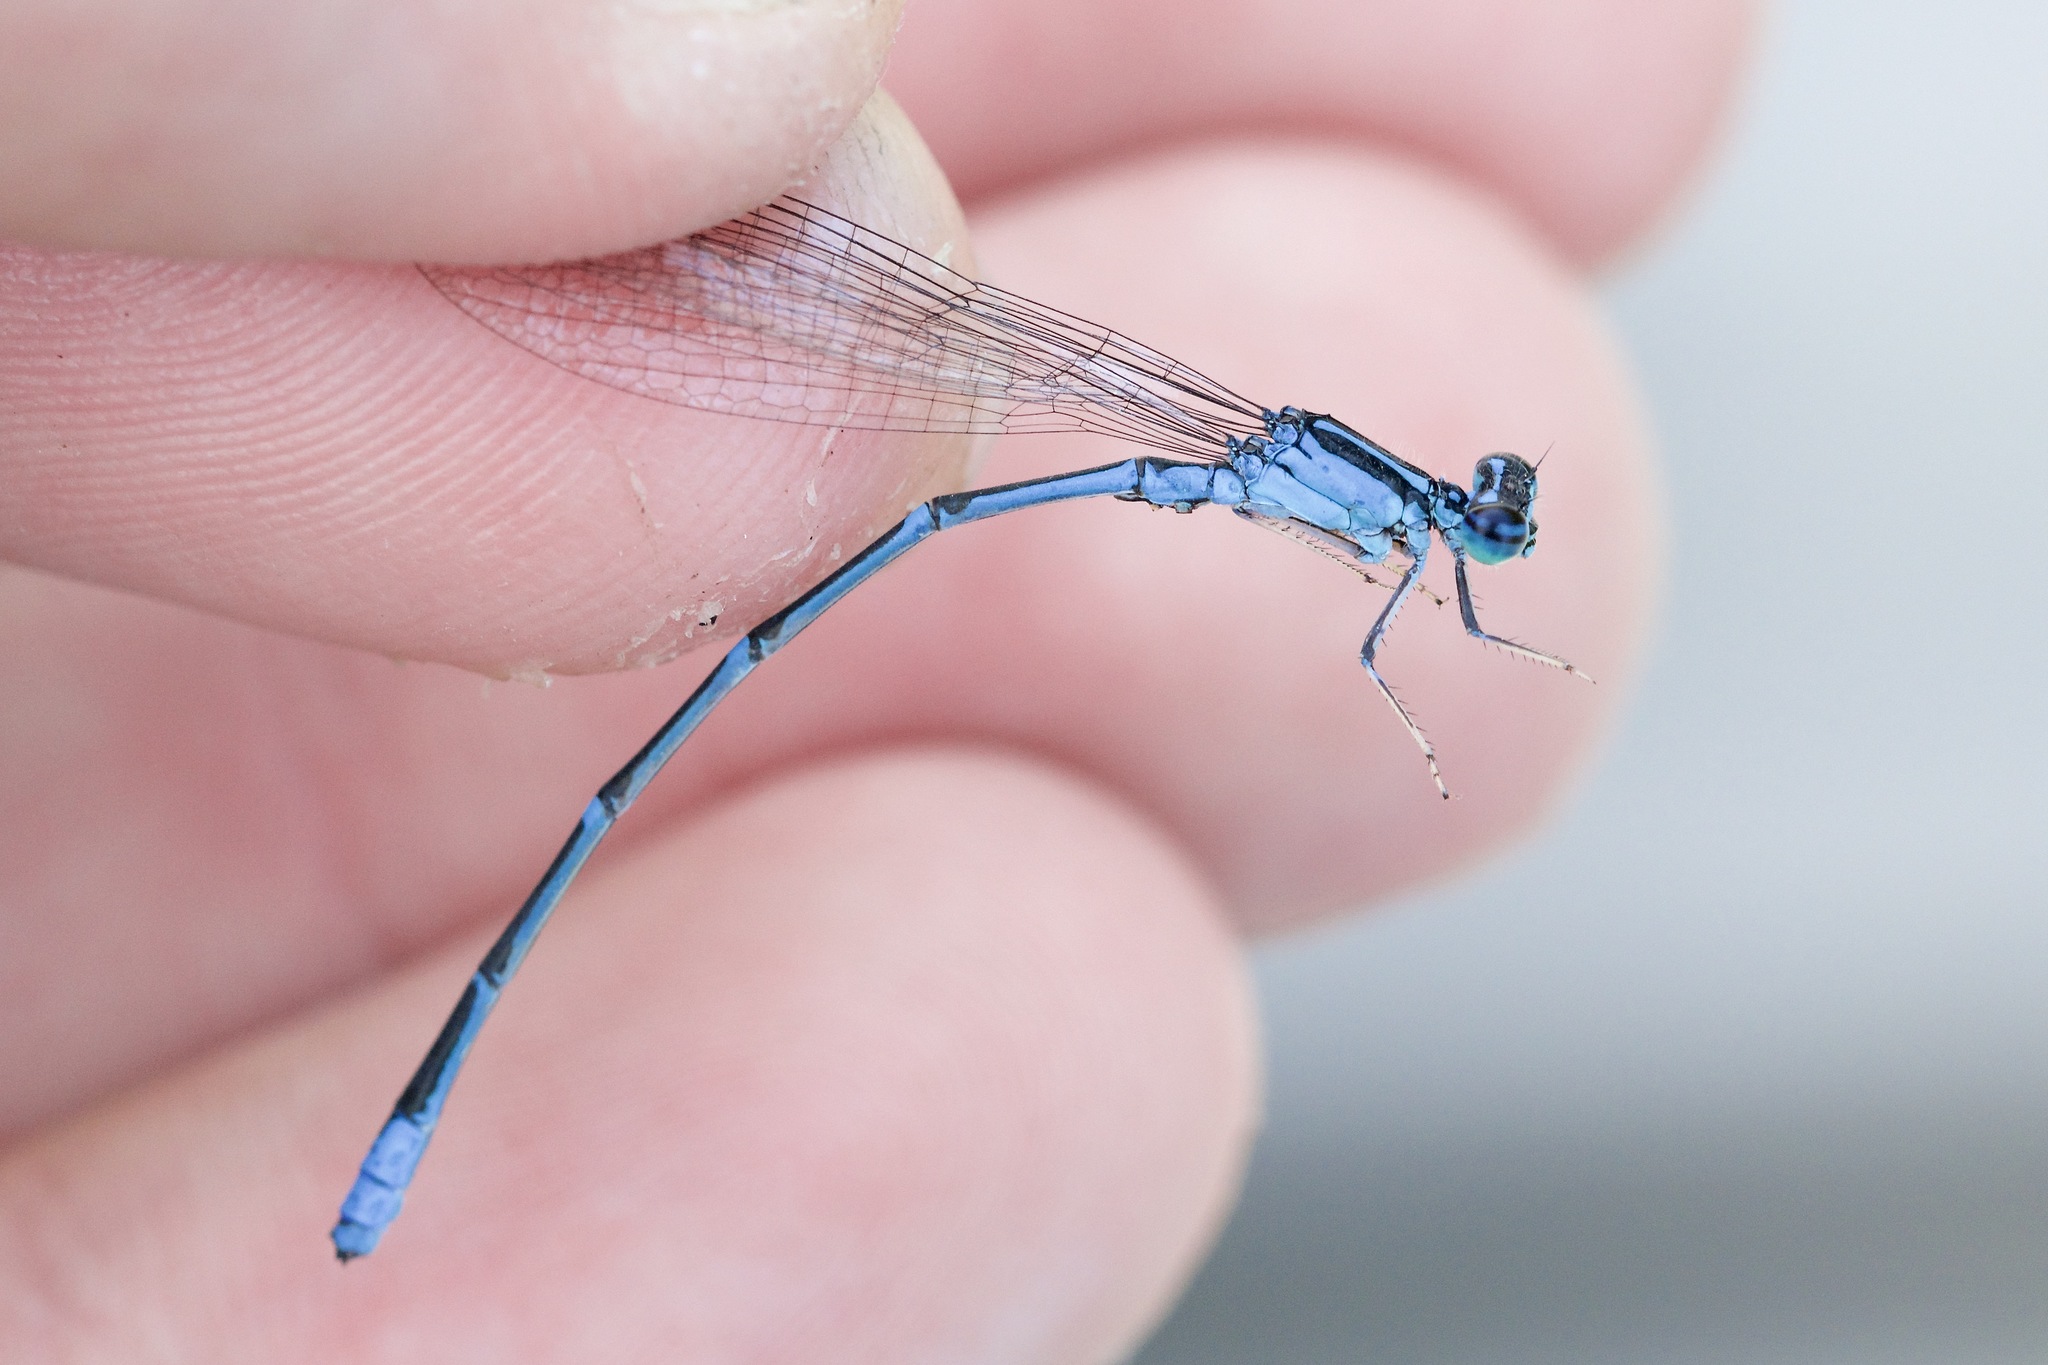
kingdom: Animalia
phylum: Arthropoda
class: Insecta
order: Odonata
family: Coenagrionidae
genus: Enallagma
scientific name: Enallagma exsulans
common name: Stream bluet
